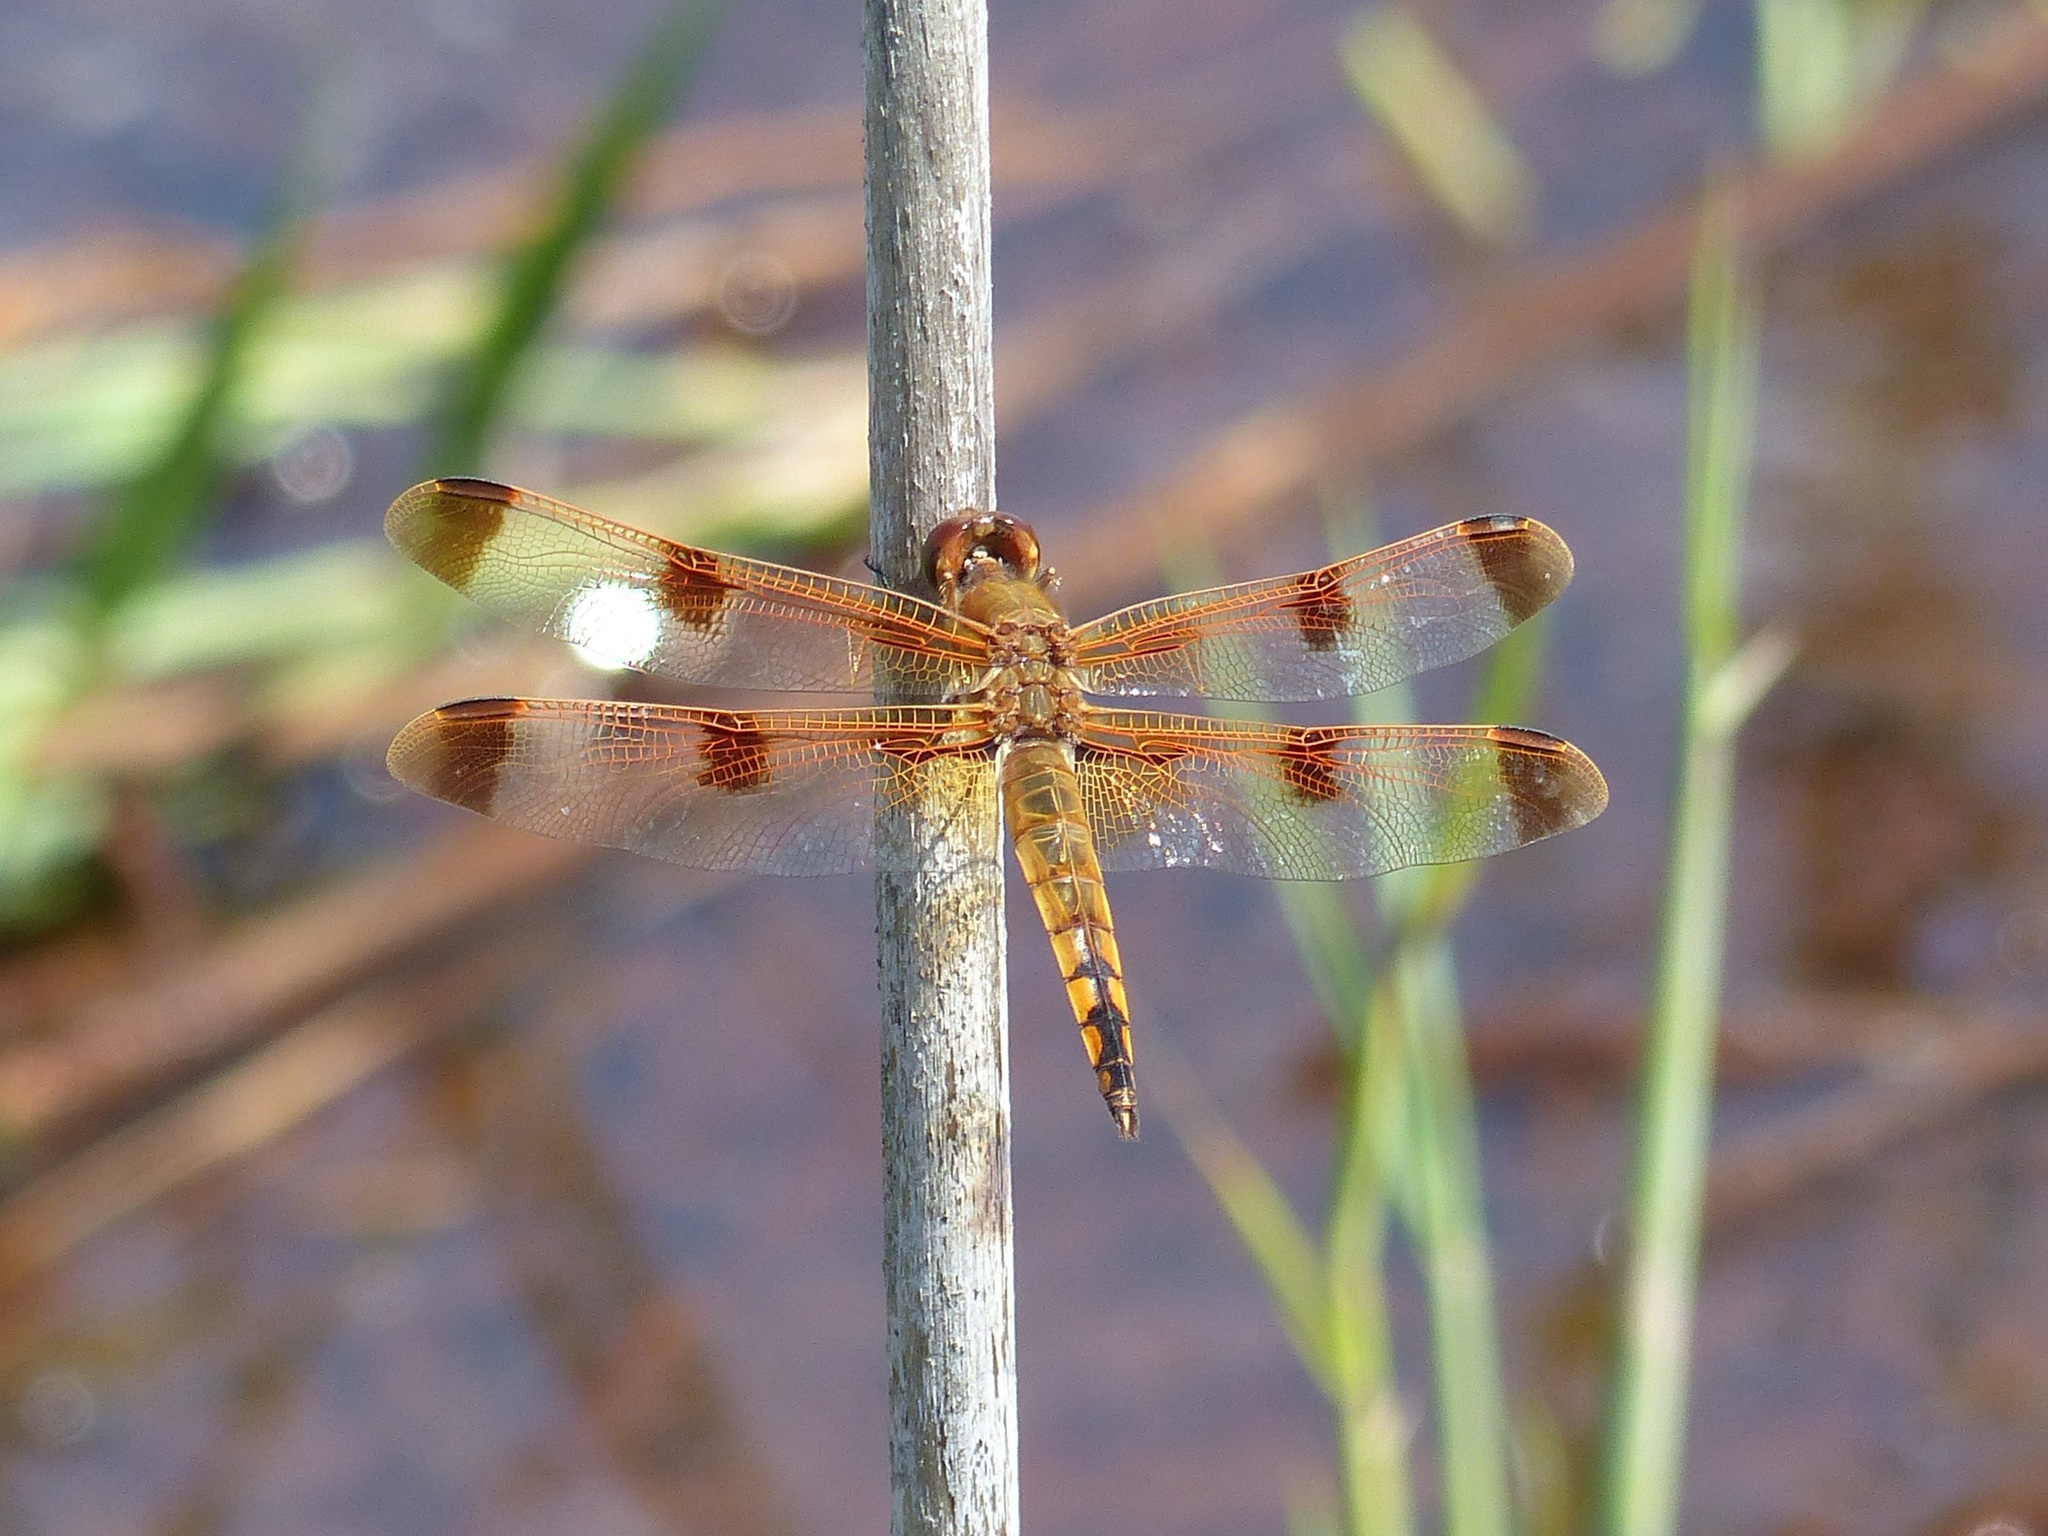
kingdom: Animalia
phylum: Arthropoda
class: Insecta
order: Odonata
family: Libellulidae
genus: Libellula
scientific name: Libellula semifasciata
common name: Painted skimmer
